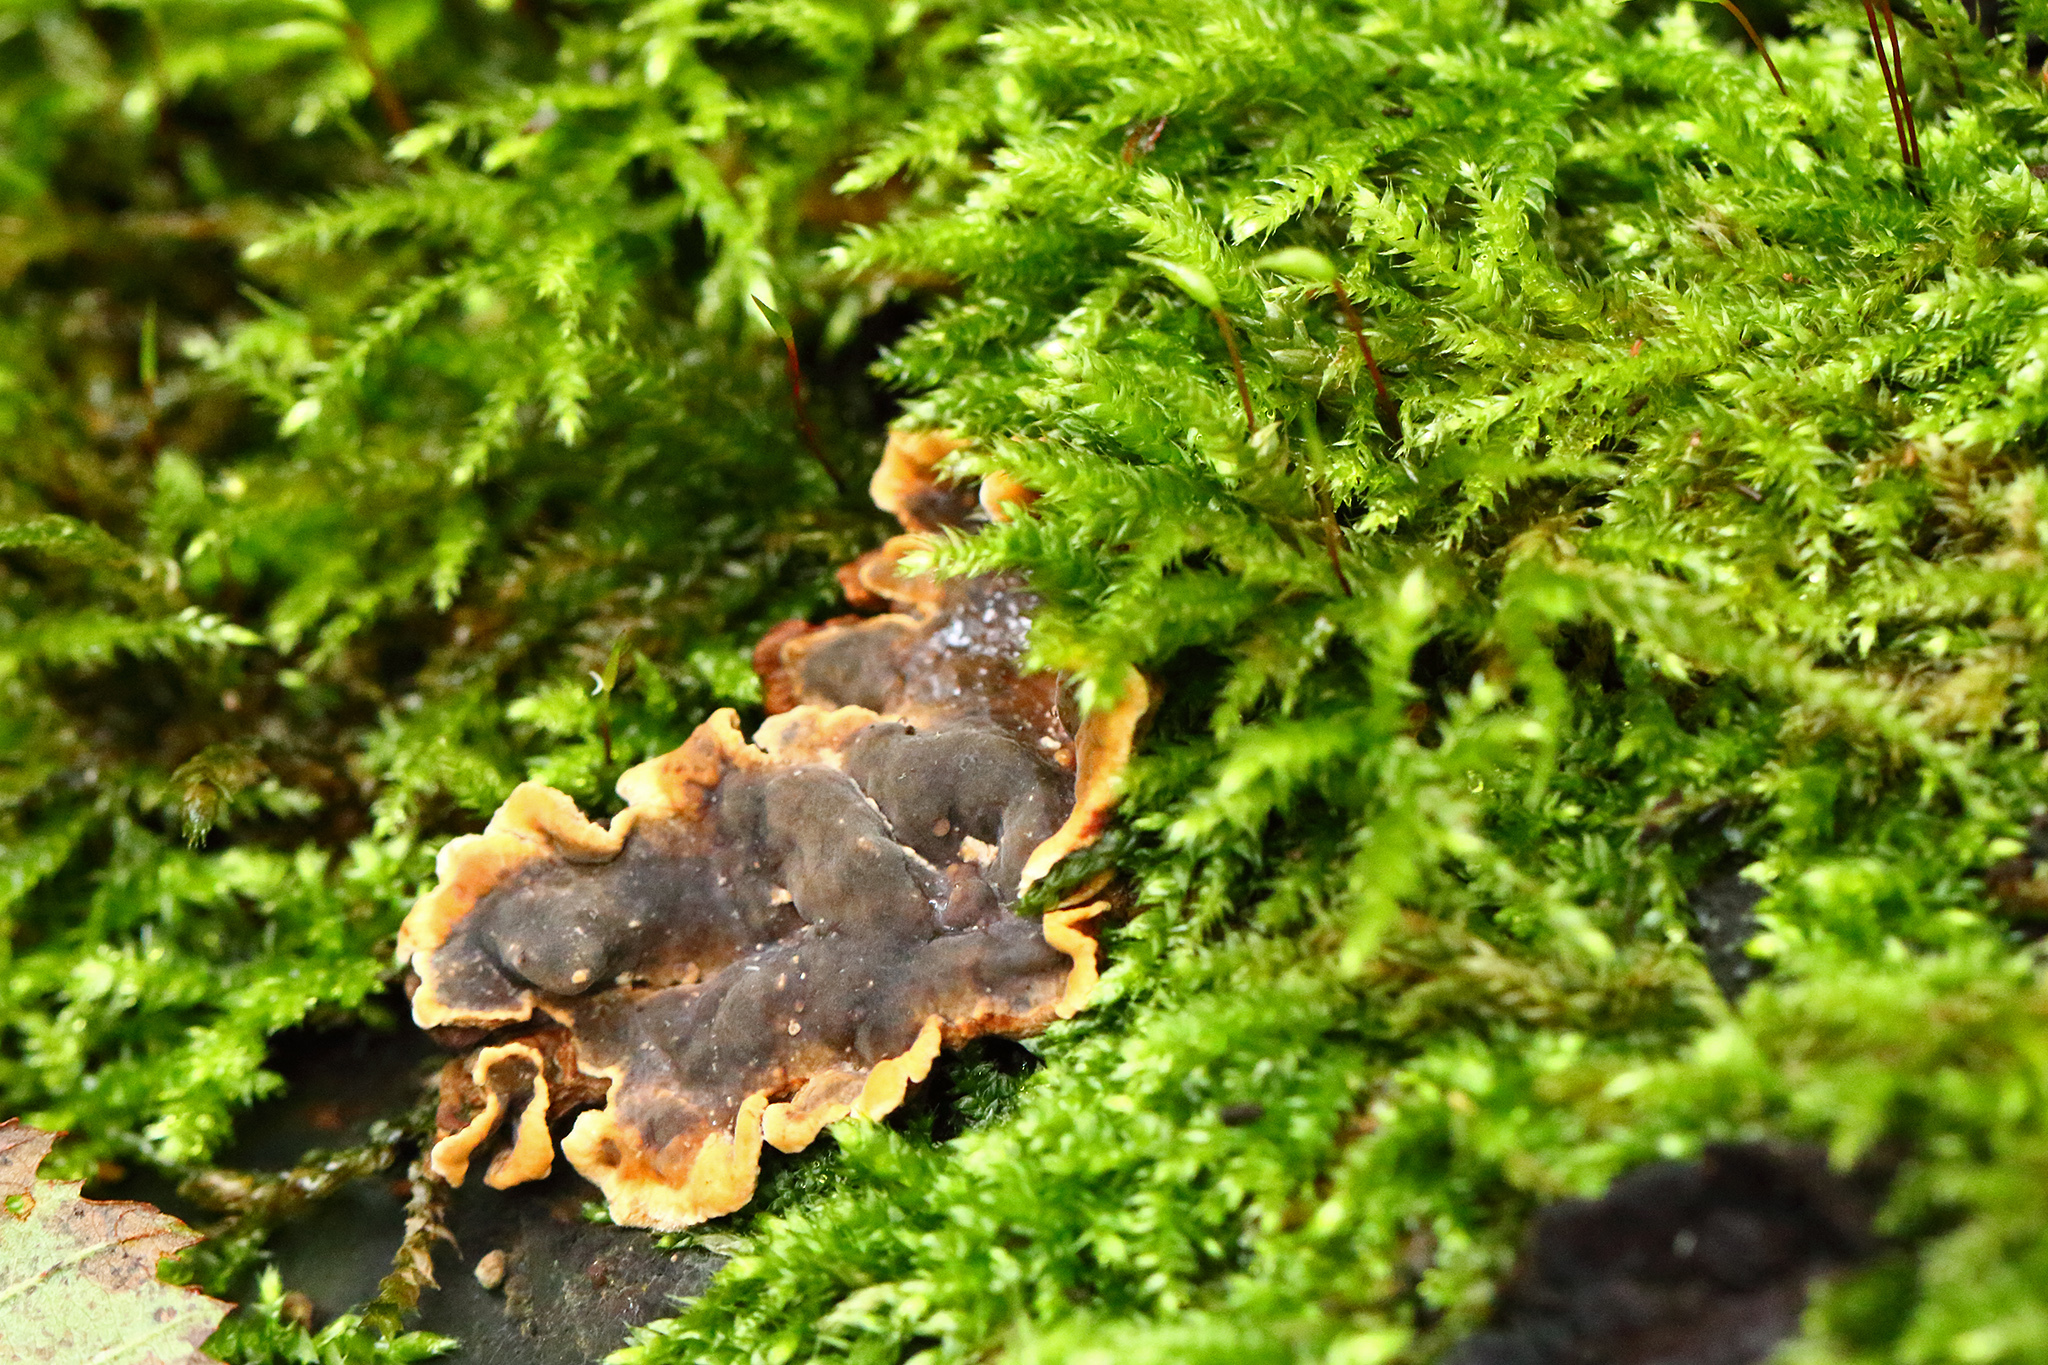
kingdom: Fungi
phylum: Basidiomycota
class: Agaricomycetes
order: Russulales
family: Stereaceae
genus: Stereum
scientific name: Stereum hirsutum
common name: Hairy curtain crust
